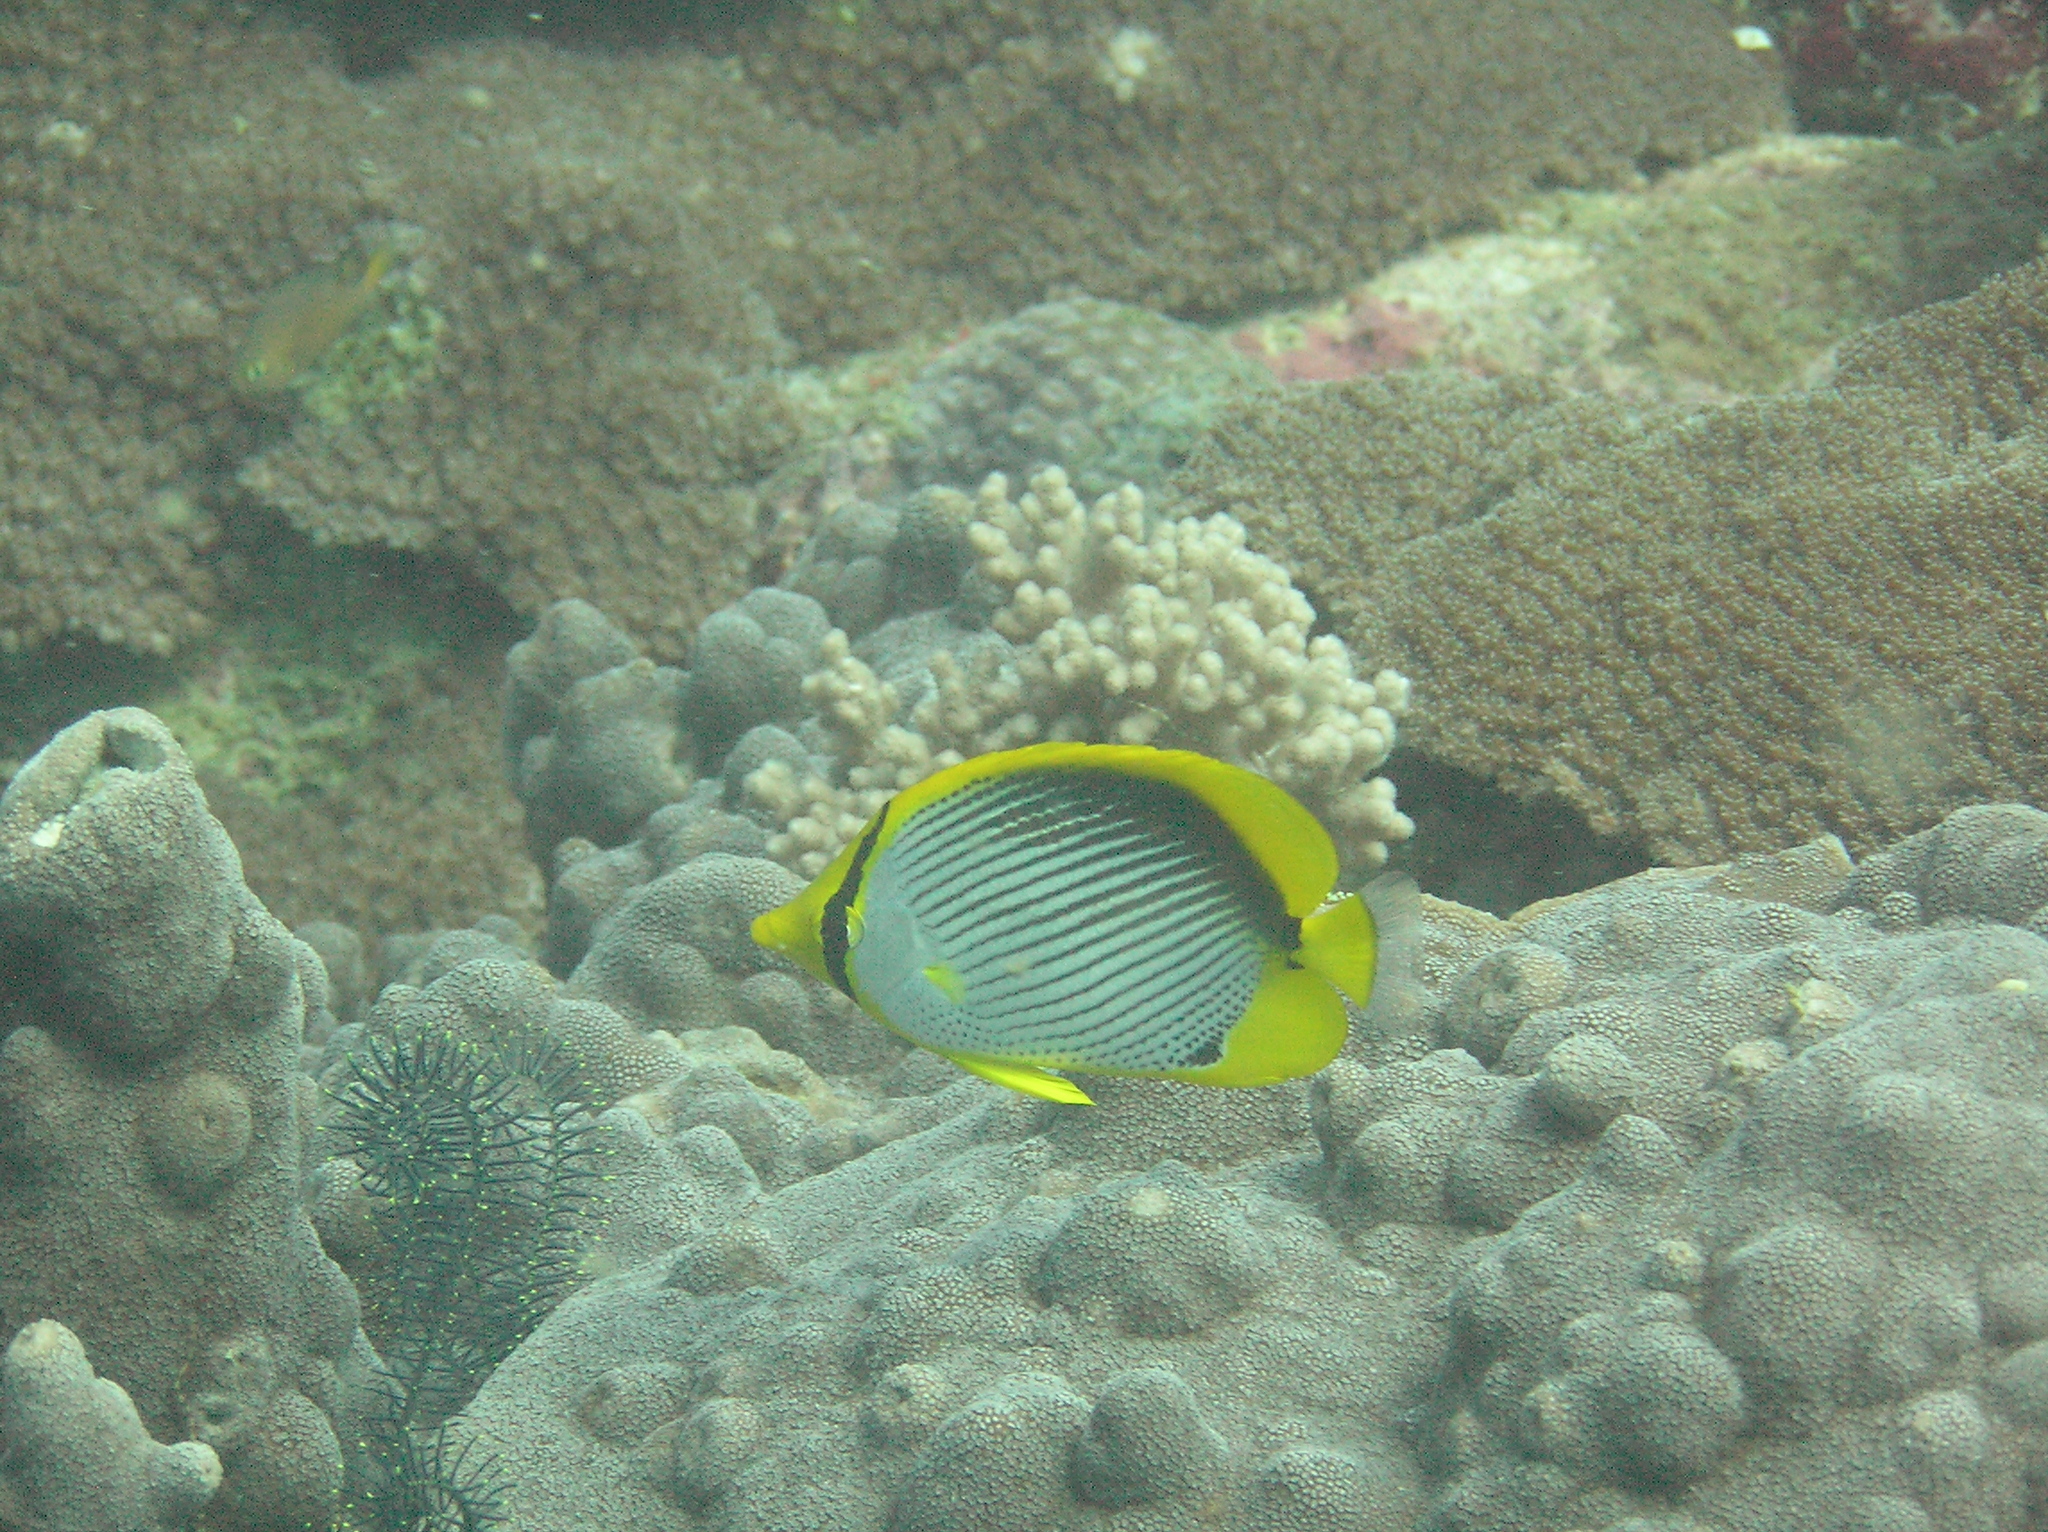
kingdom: Animalia
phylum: Chordata
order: Perciformes
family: Chaetodontidae
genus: Chaetodon
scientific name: Chaetodon melannotus
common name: Blackback butterflyfish
